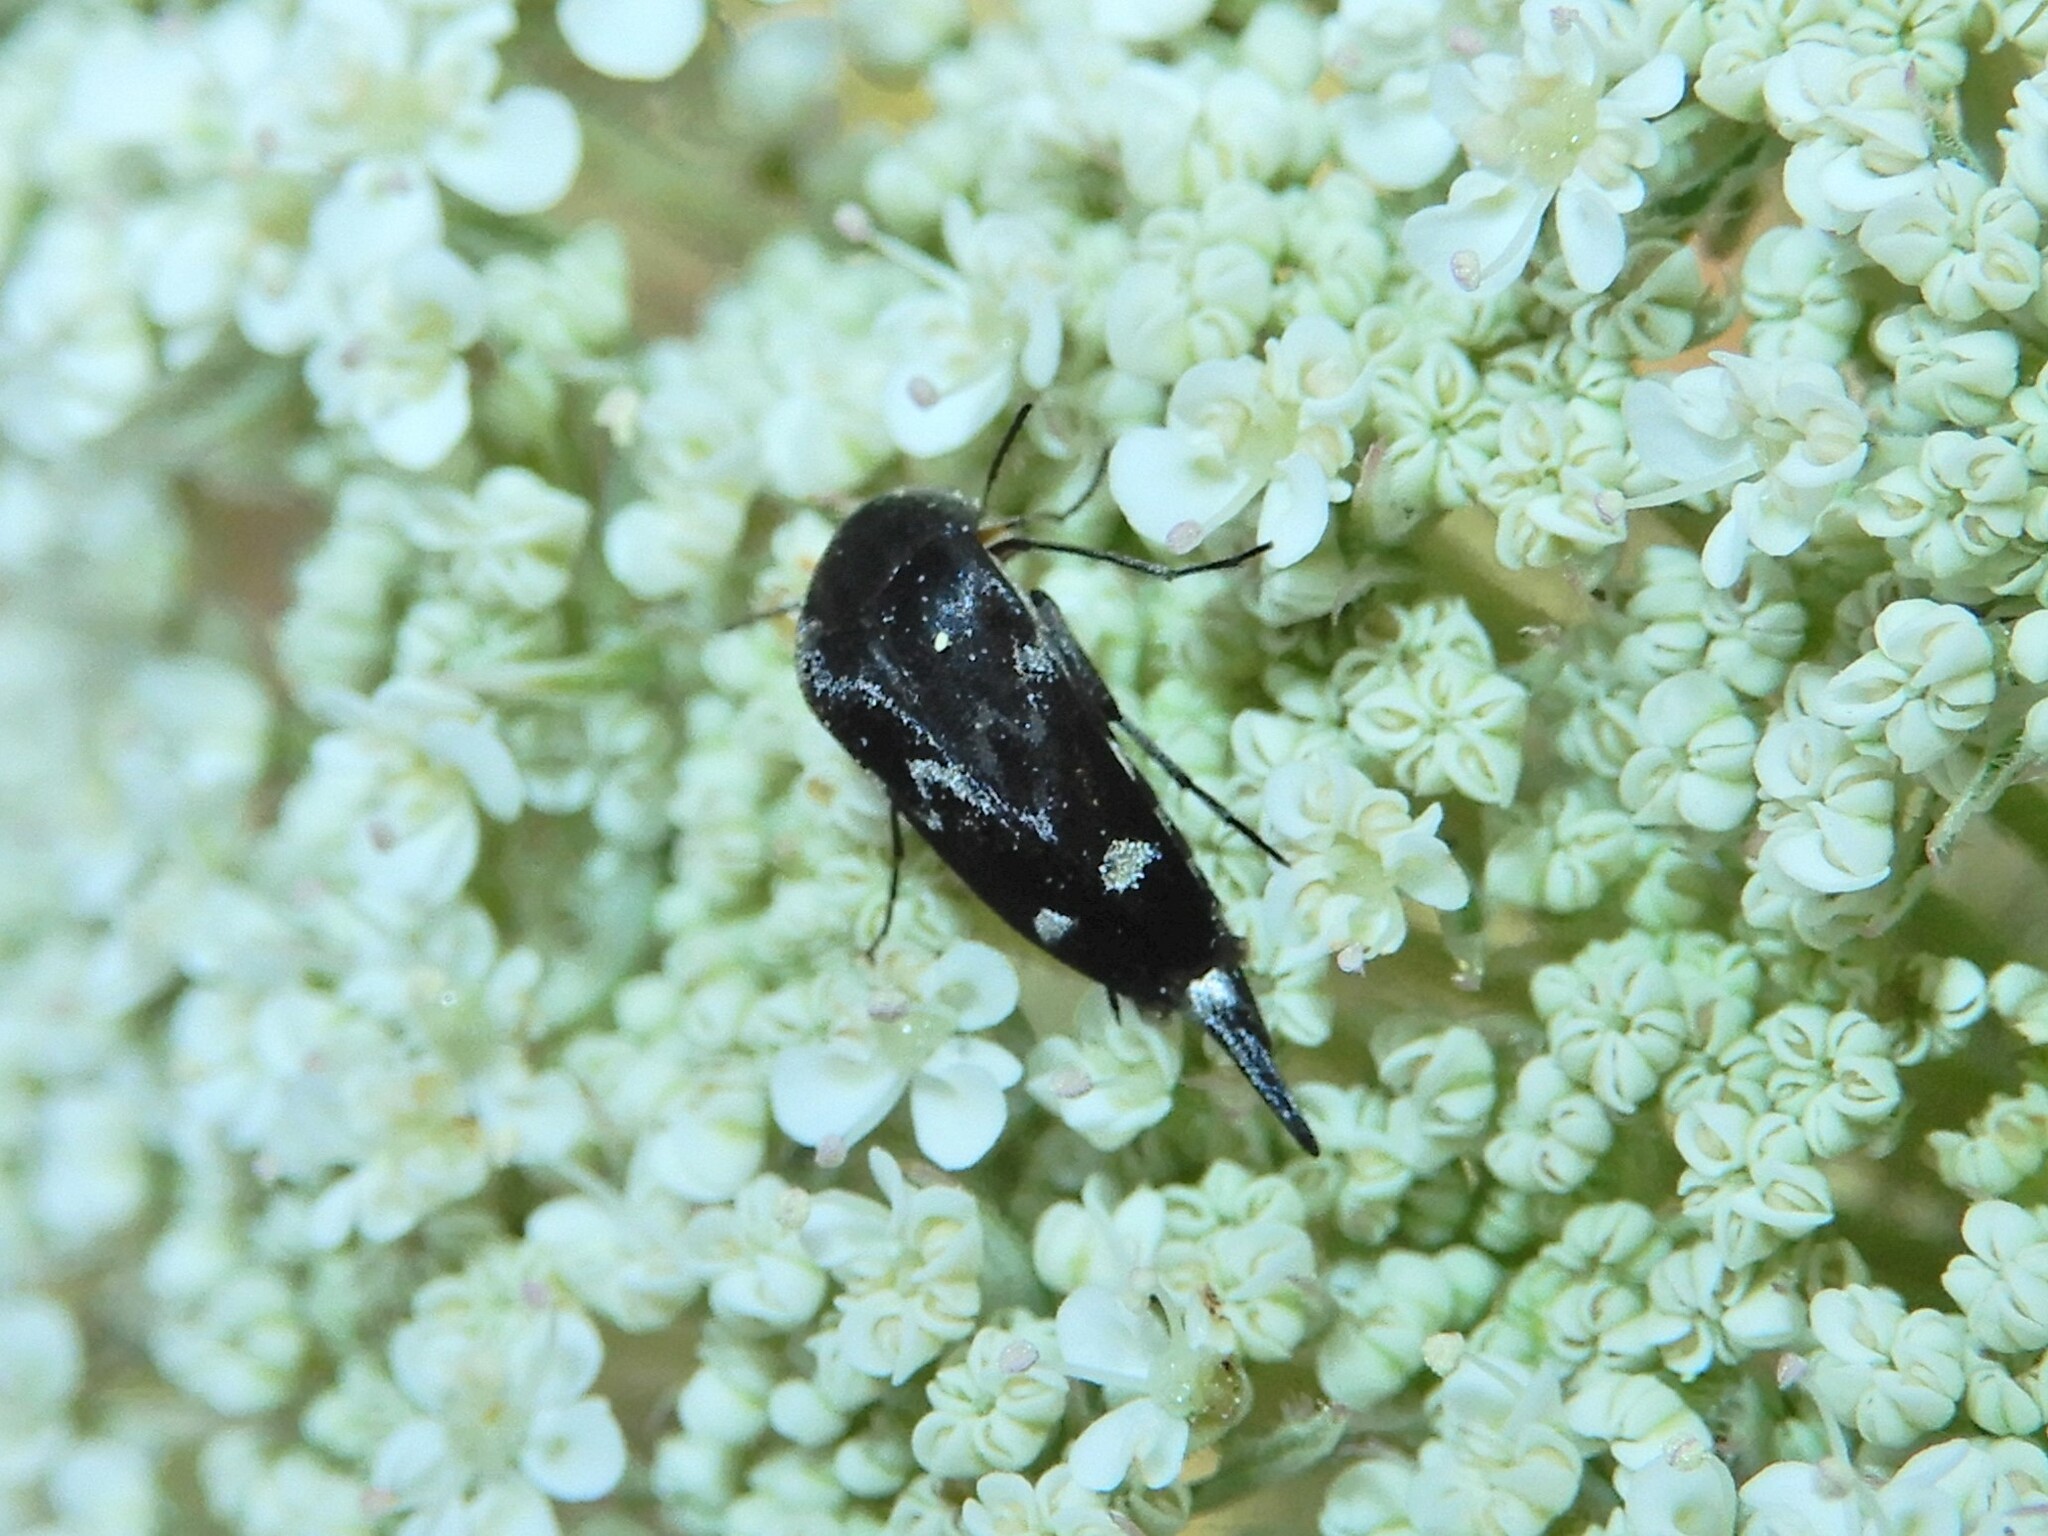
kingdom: Animalia
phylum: Arthropoda
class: Insecta
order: Coleoptera
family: Mordellidae
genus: Mordella
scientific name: Mordella
